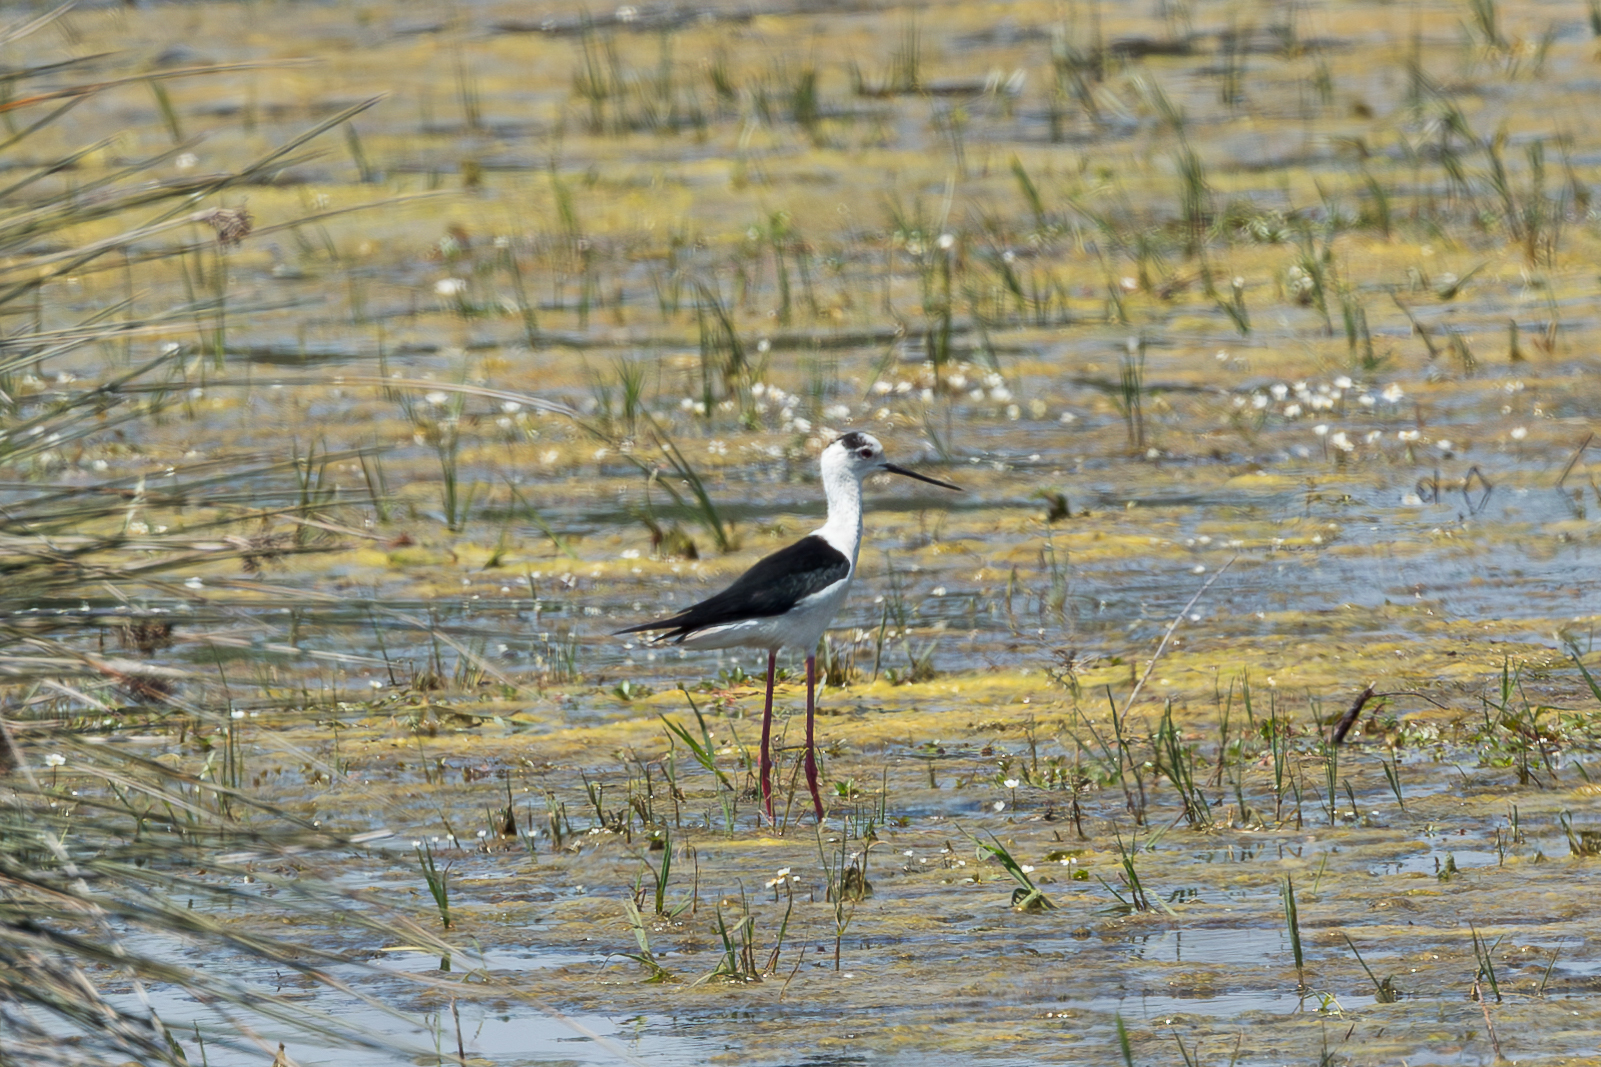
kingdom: Animalia
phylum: Chordata
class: Aves
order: Charadriiformes
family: Recurvirostridae
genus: Himantopus
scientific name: Himantopus himantopus
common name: Black-winged stilt
